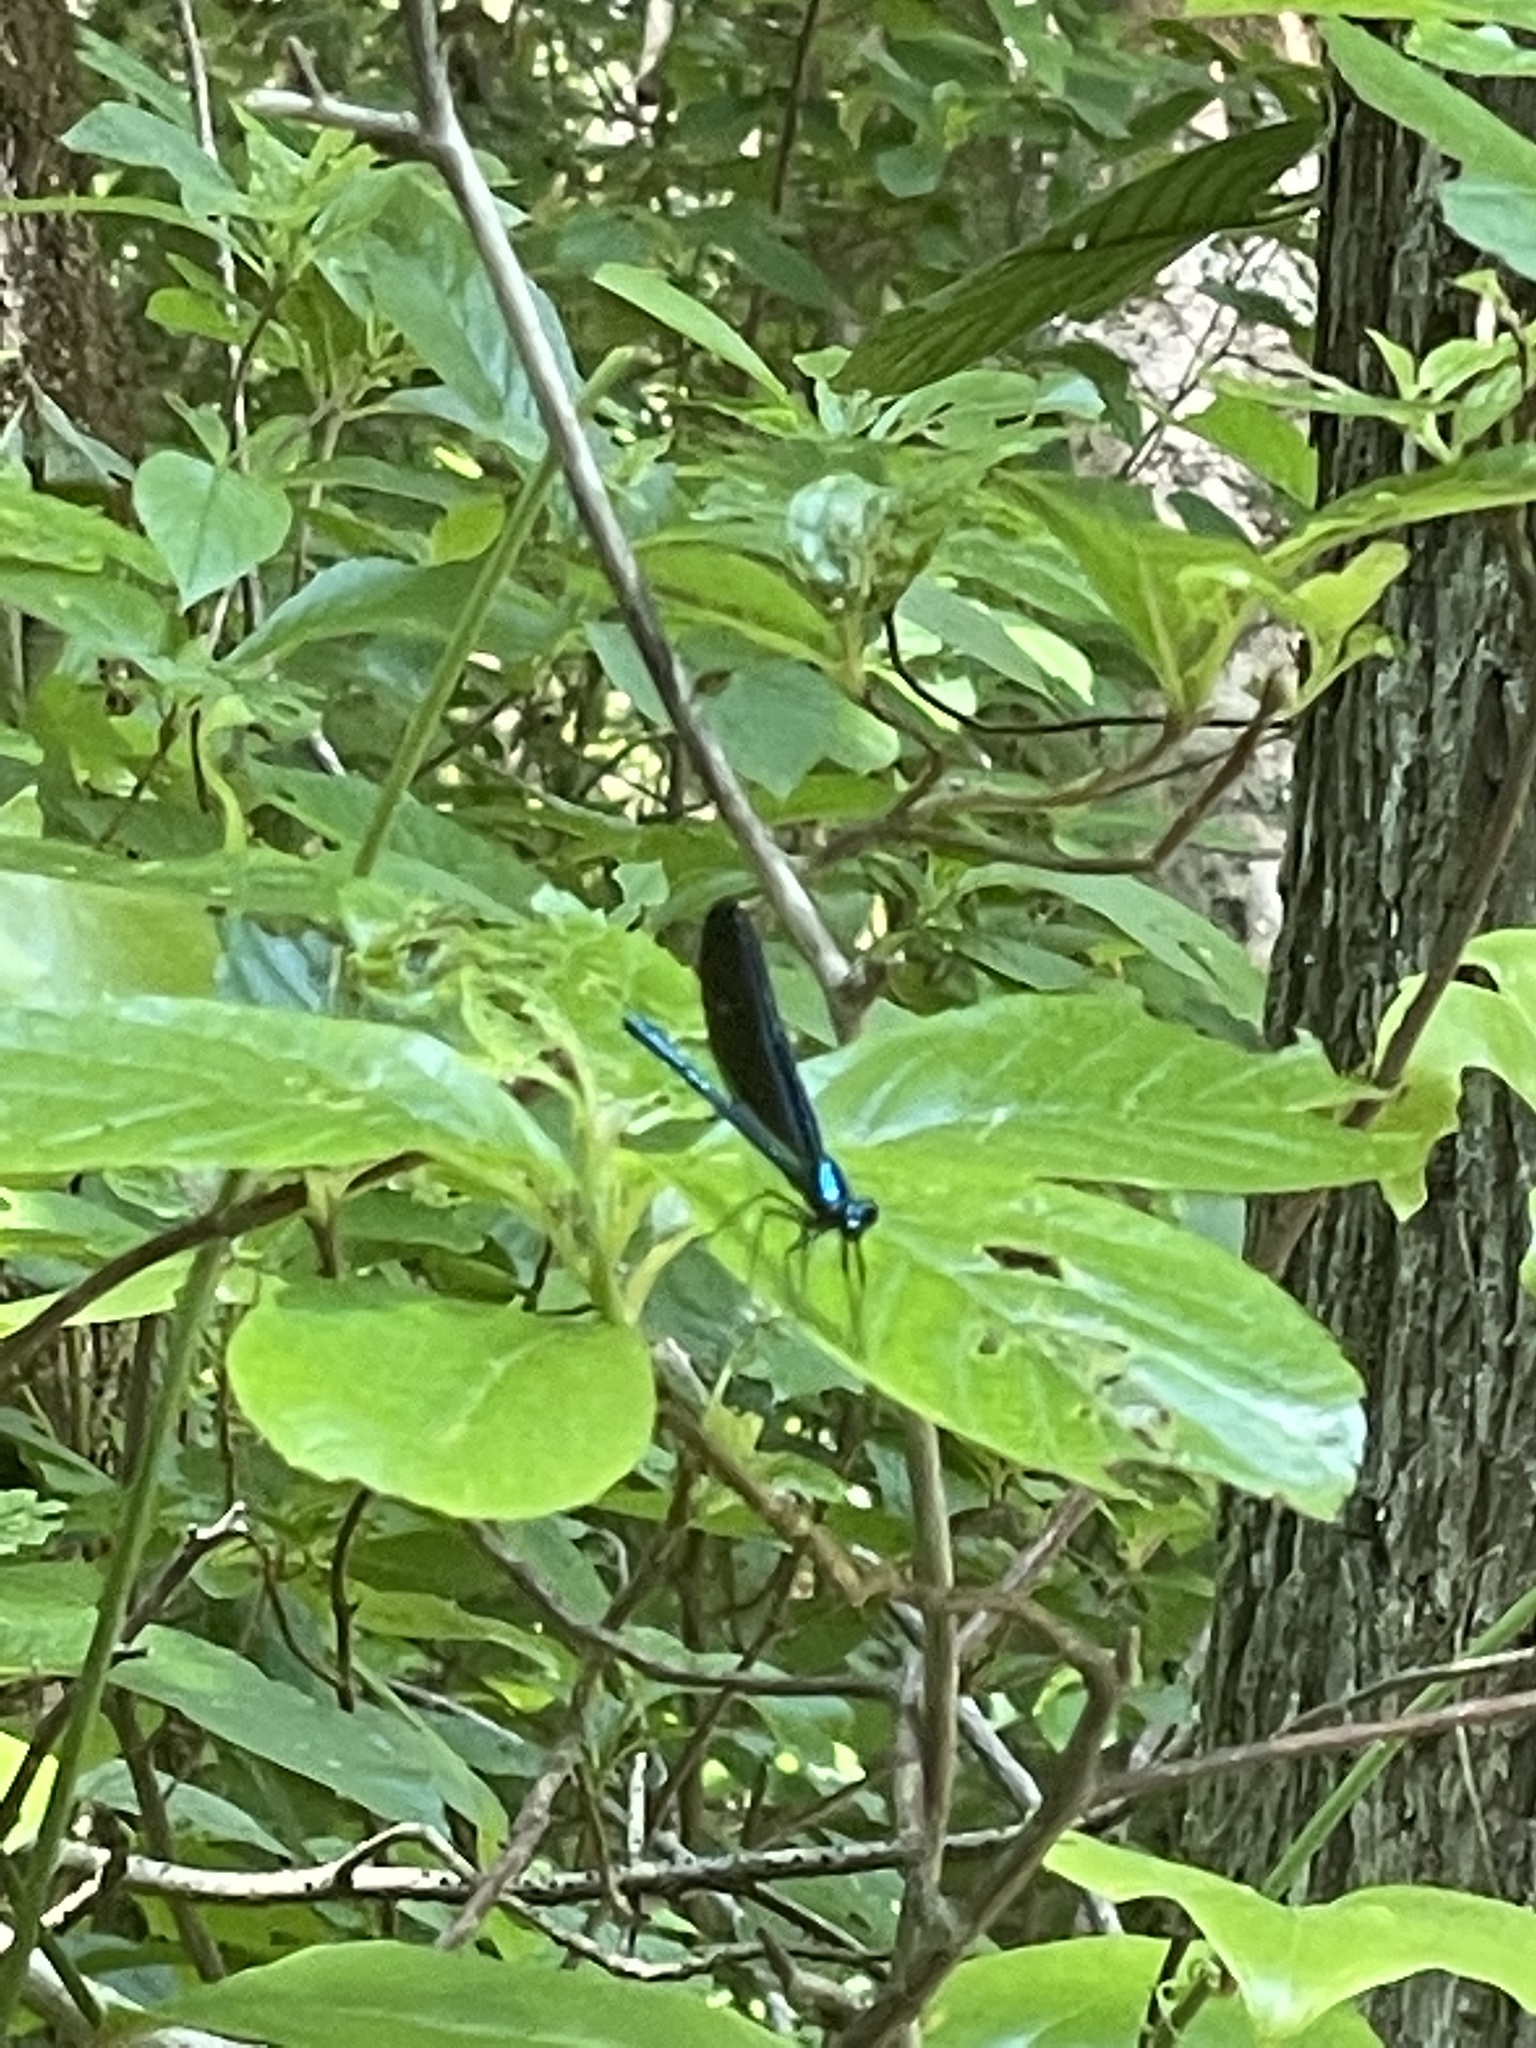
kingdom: Animalia
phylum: Arthropoda
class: Insecta
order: Odonata
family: Calopterygidae
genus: Calopteryx
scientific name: Calopteryx maculata
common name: Ebony jewelwing
